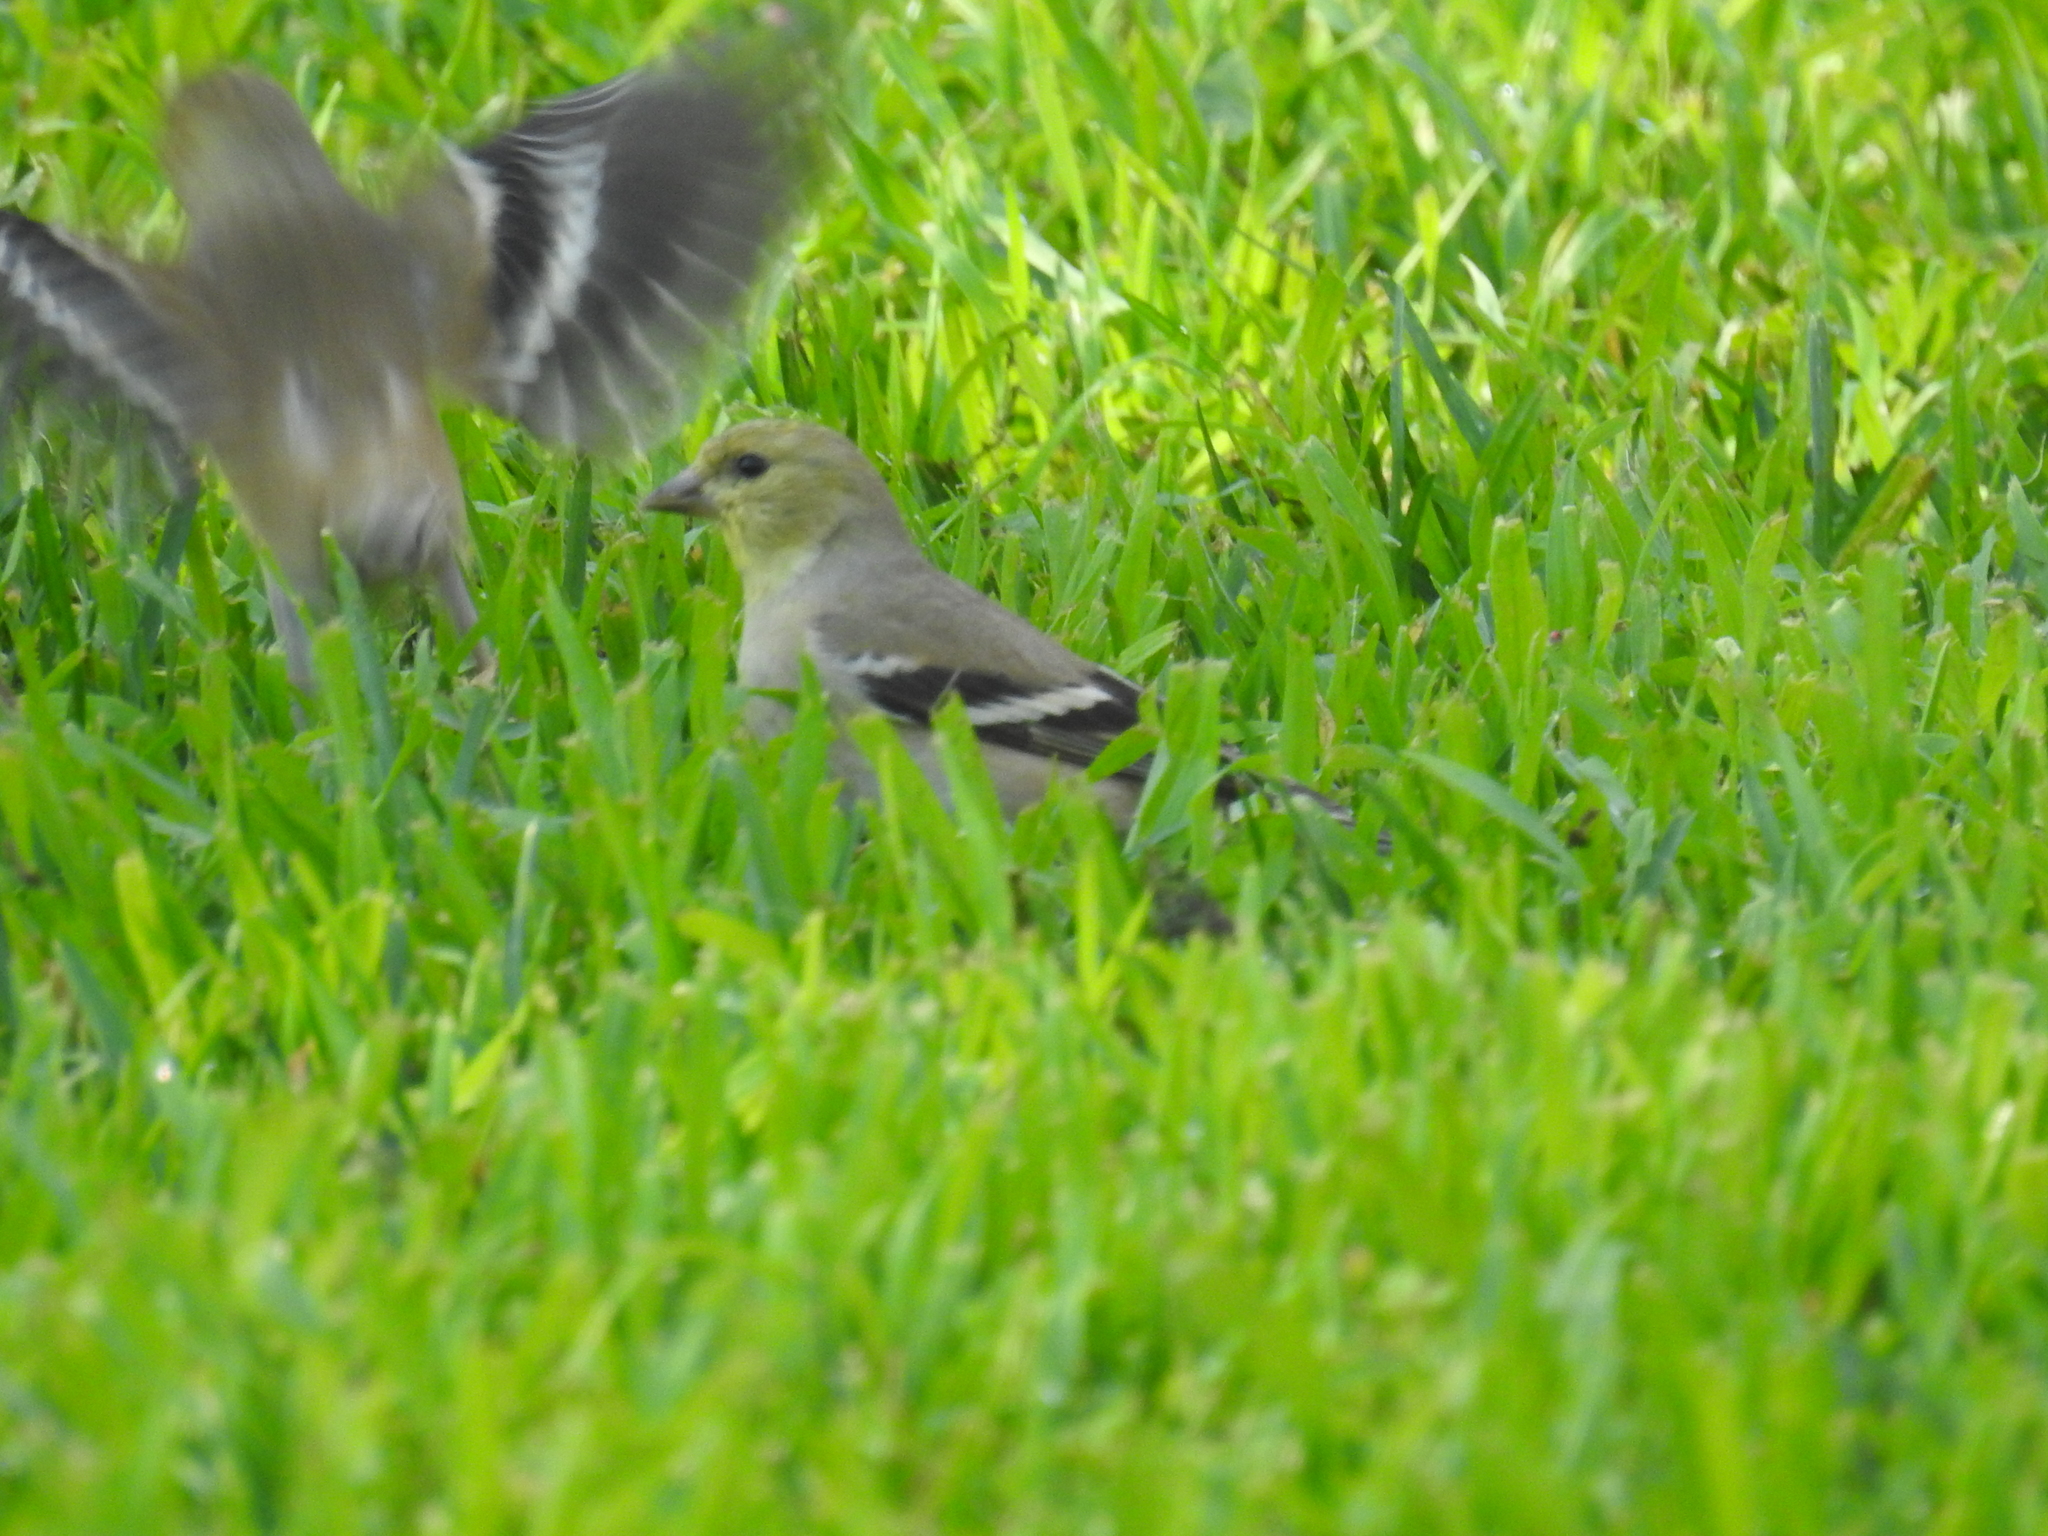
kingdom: Animalia
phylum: Chordata
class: Aves
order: Passeriformes
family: Fringillidae
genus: Spinus
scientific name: Spinus tristis
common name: American goldfinch
